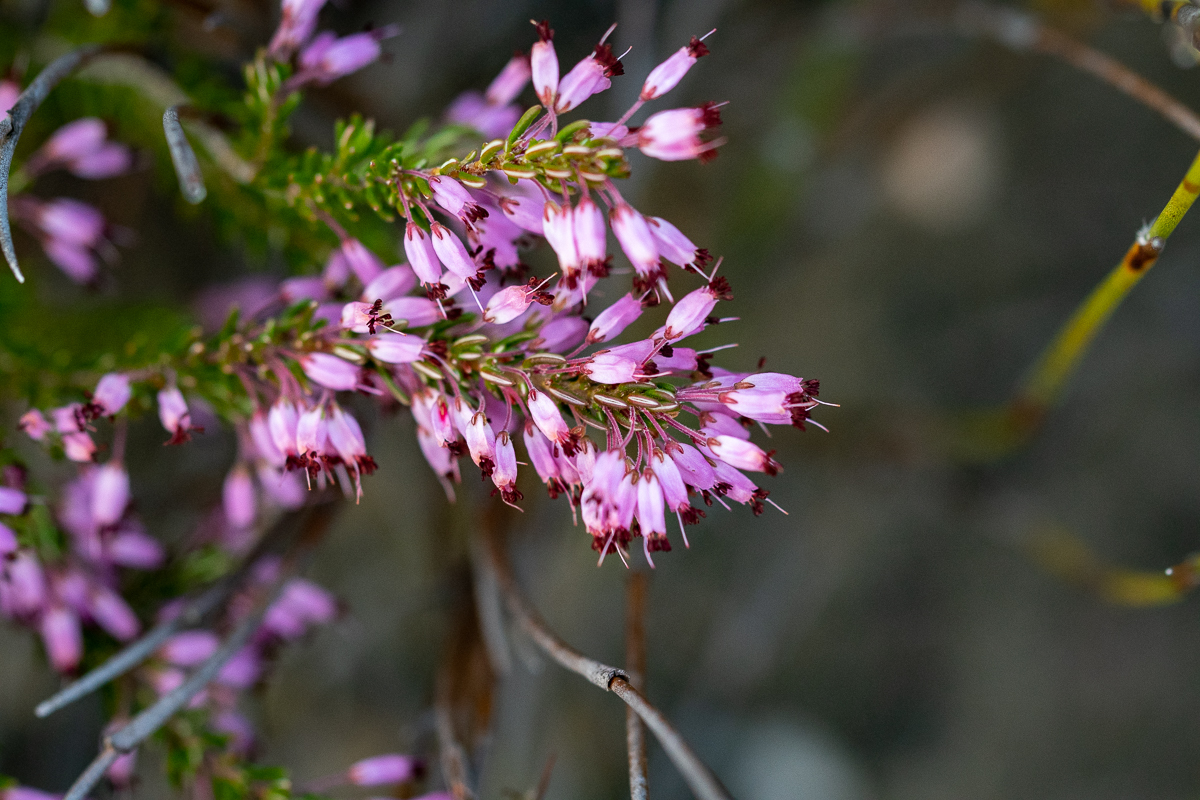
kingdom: Plantae
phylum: Tracheophyta
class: Magnoliopsida
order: Ericales
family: Ericaceae
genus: Erica
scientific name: Erica nudiflora
